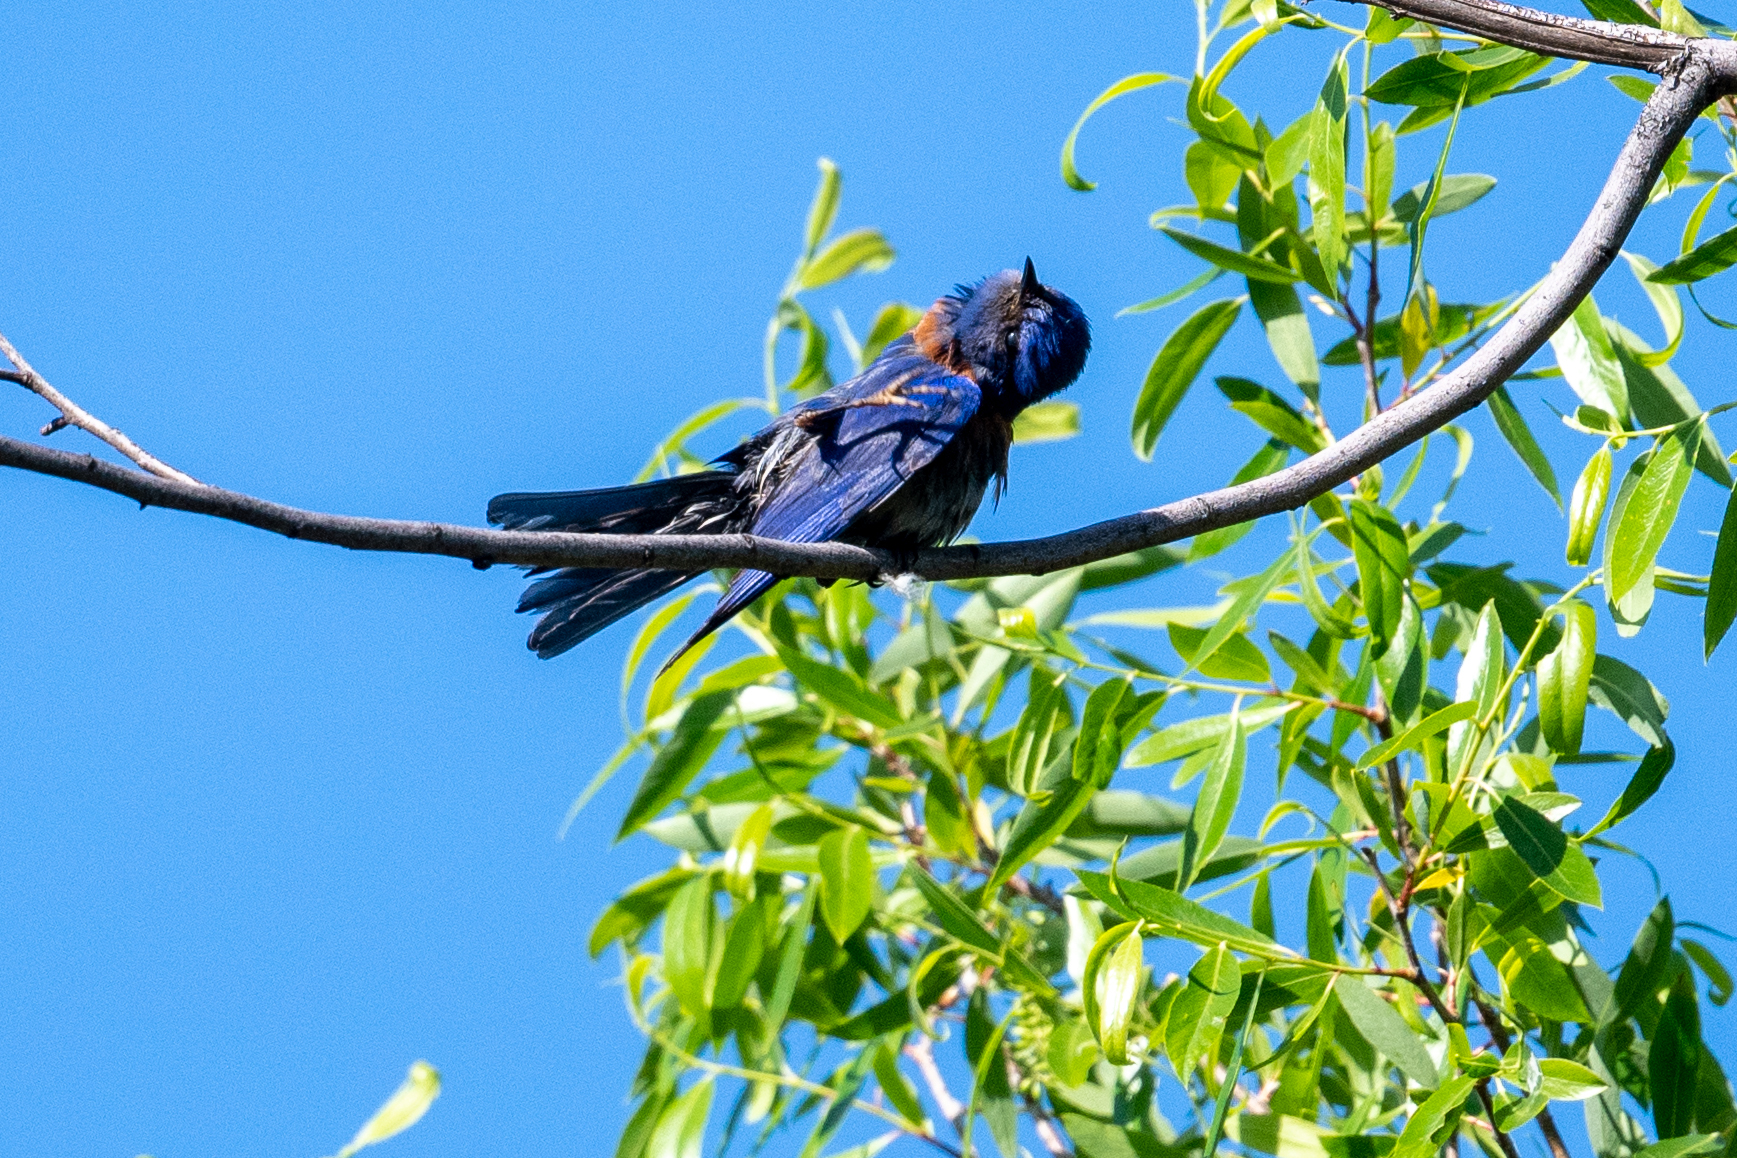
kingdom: Animalia
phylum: Chordata
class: Aves
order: Passeriformes
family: Turdidae
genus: Sialia
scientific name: Sialia mexicana
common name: Western bluebird
